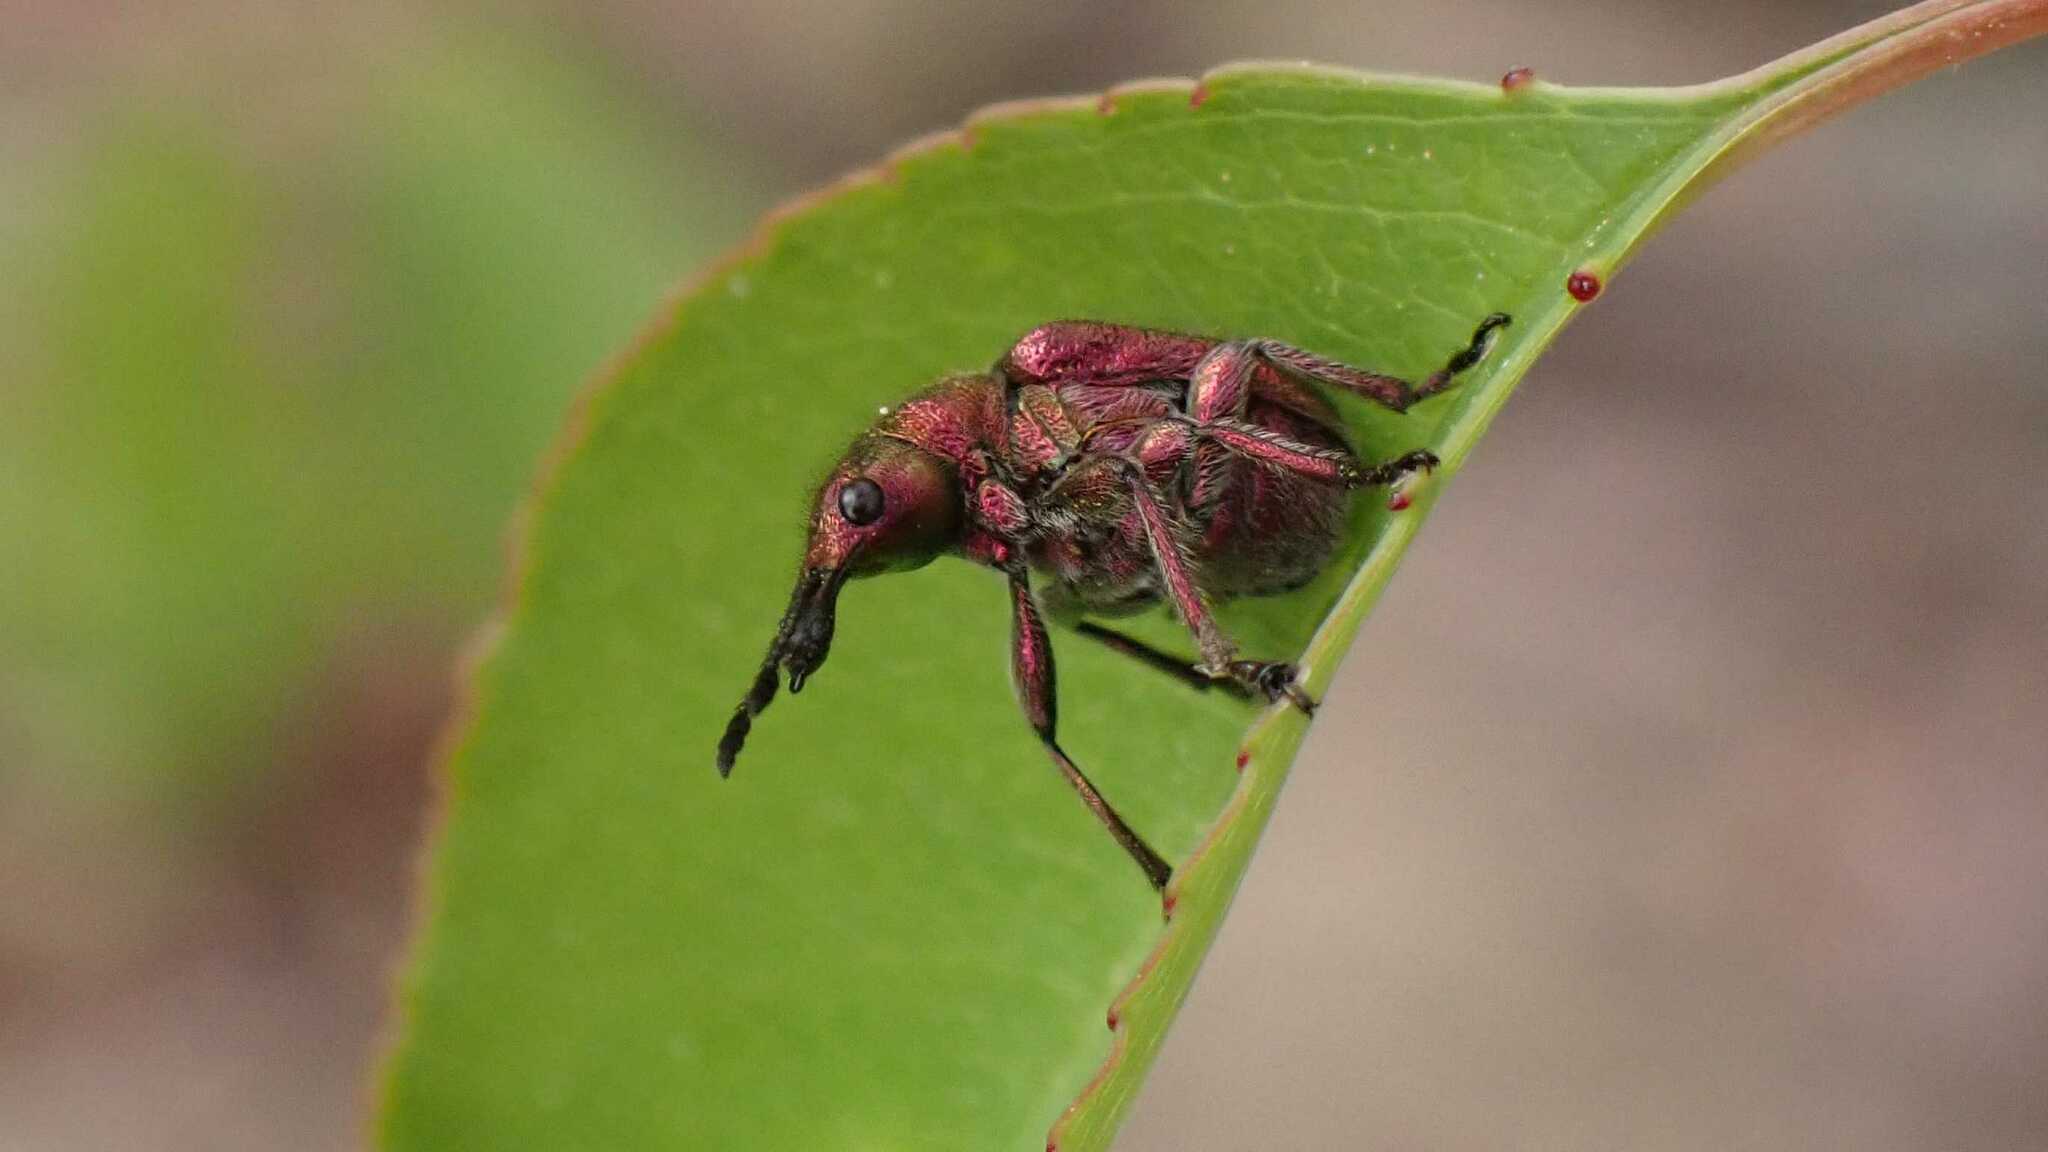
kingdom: Animalia
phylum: Arthropoda
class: Insecta
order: Coleoptera
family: Attelabidae
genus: Rhynchites
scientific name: Rhynchites auratus
